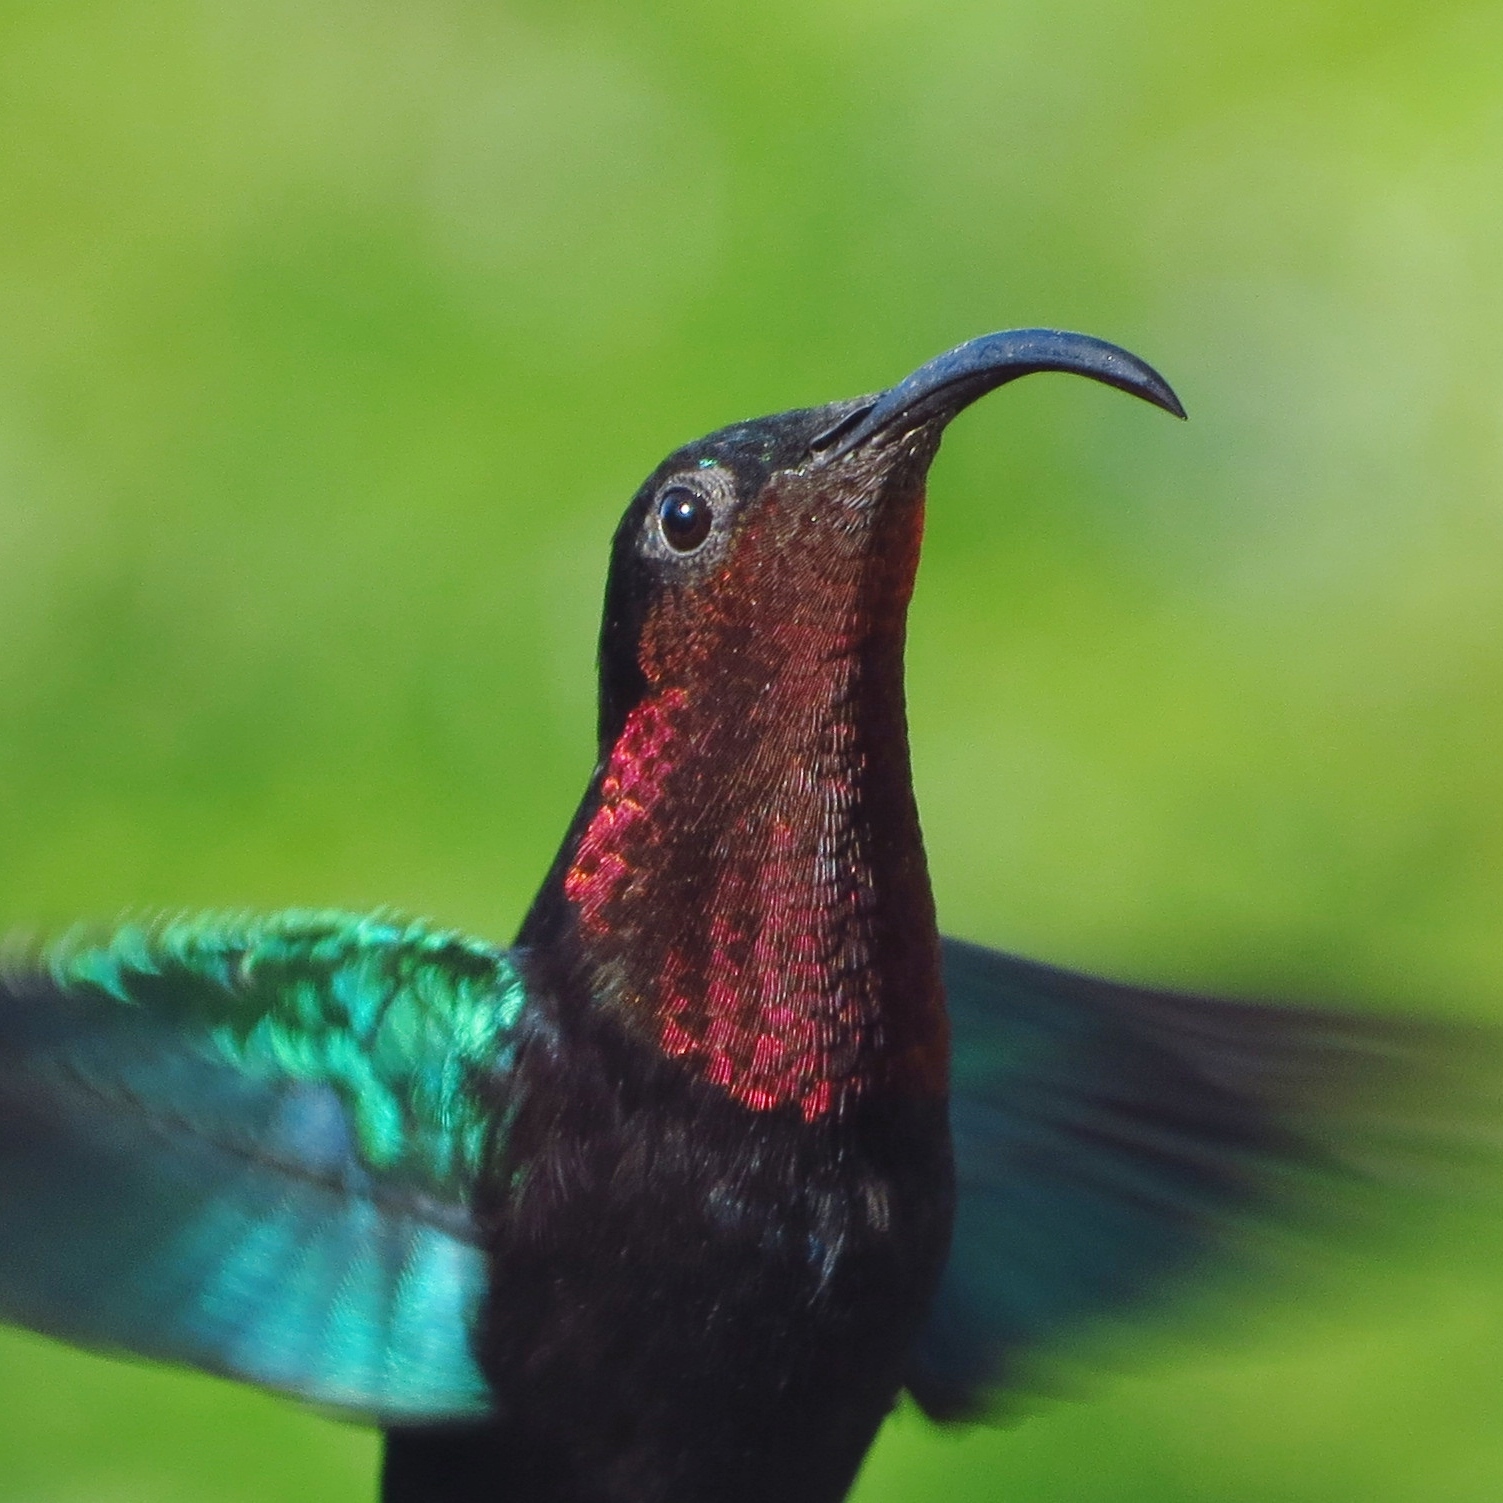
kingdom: Animalia
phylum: Chordata
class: Aves
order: Apodiformes
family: Trochilidae
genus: Eulampis
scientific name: Eulampis jugularis
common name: Purple-throated carib
